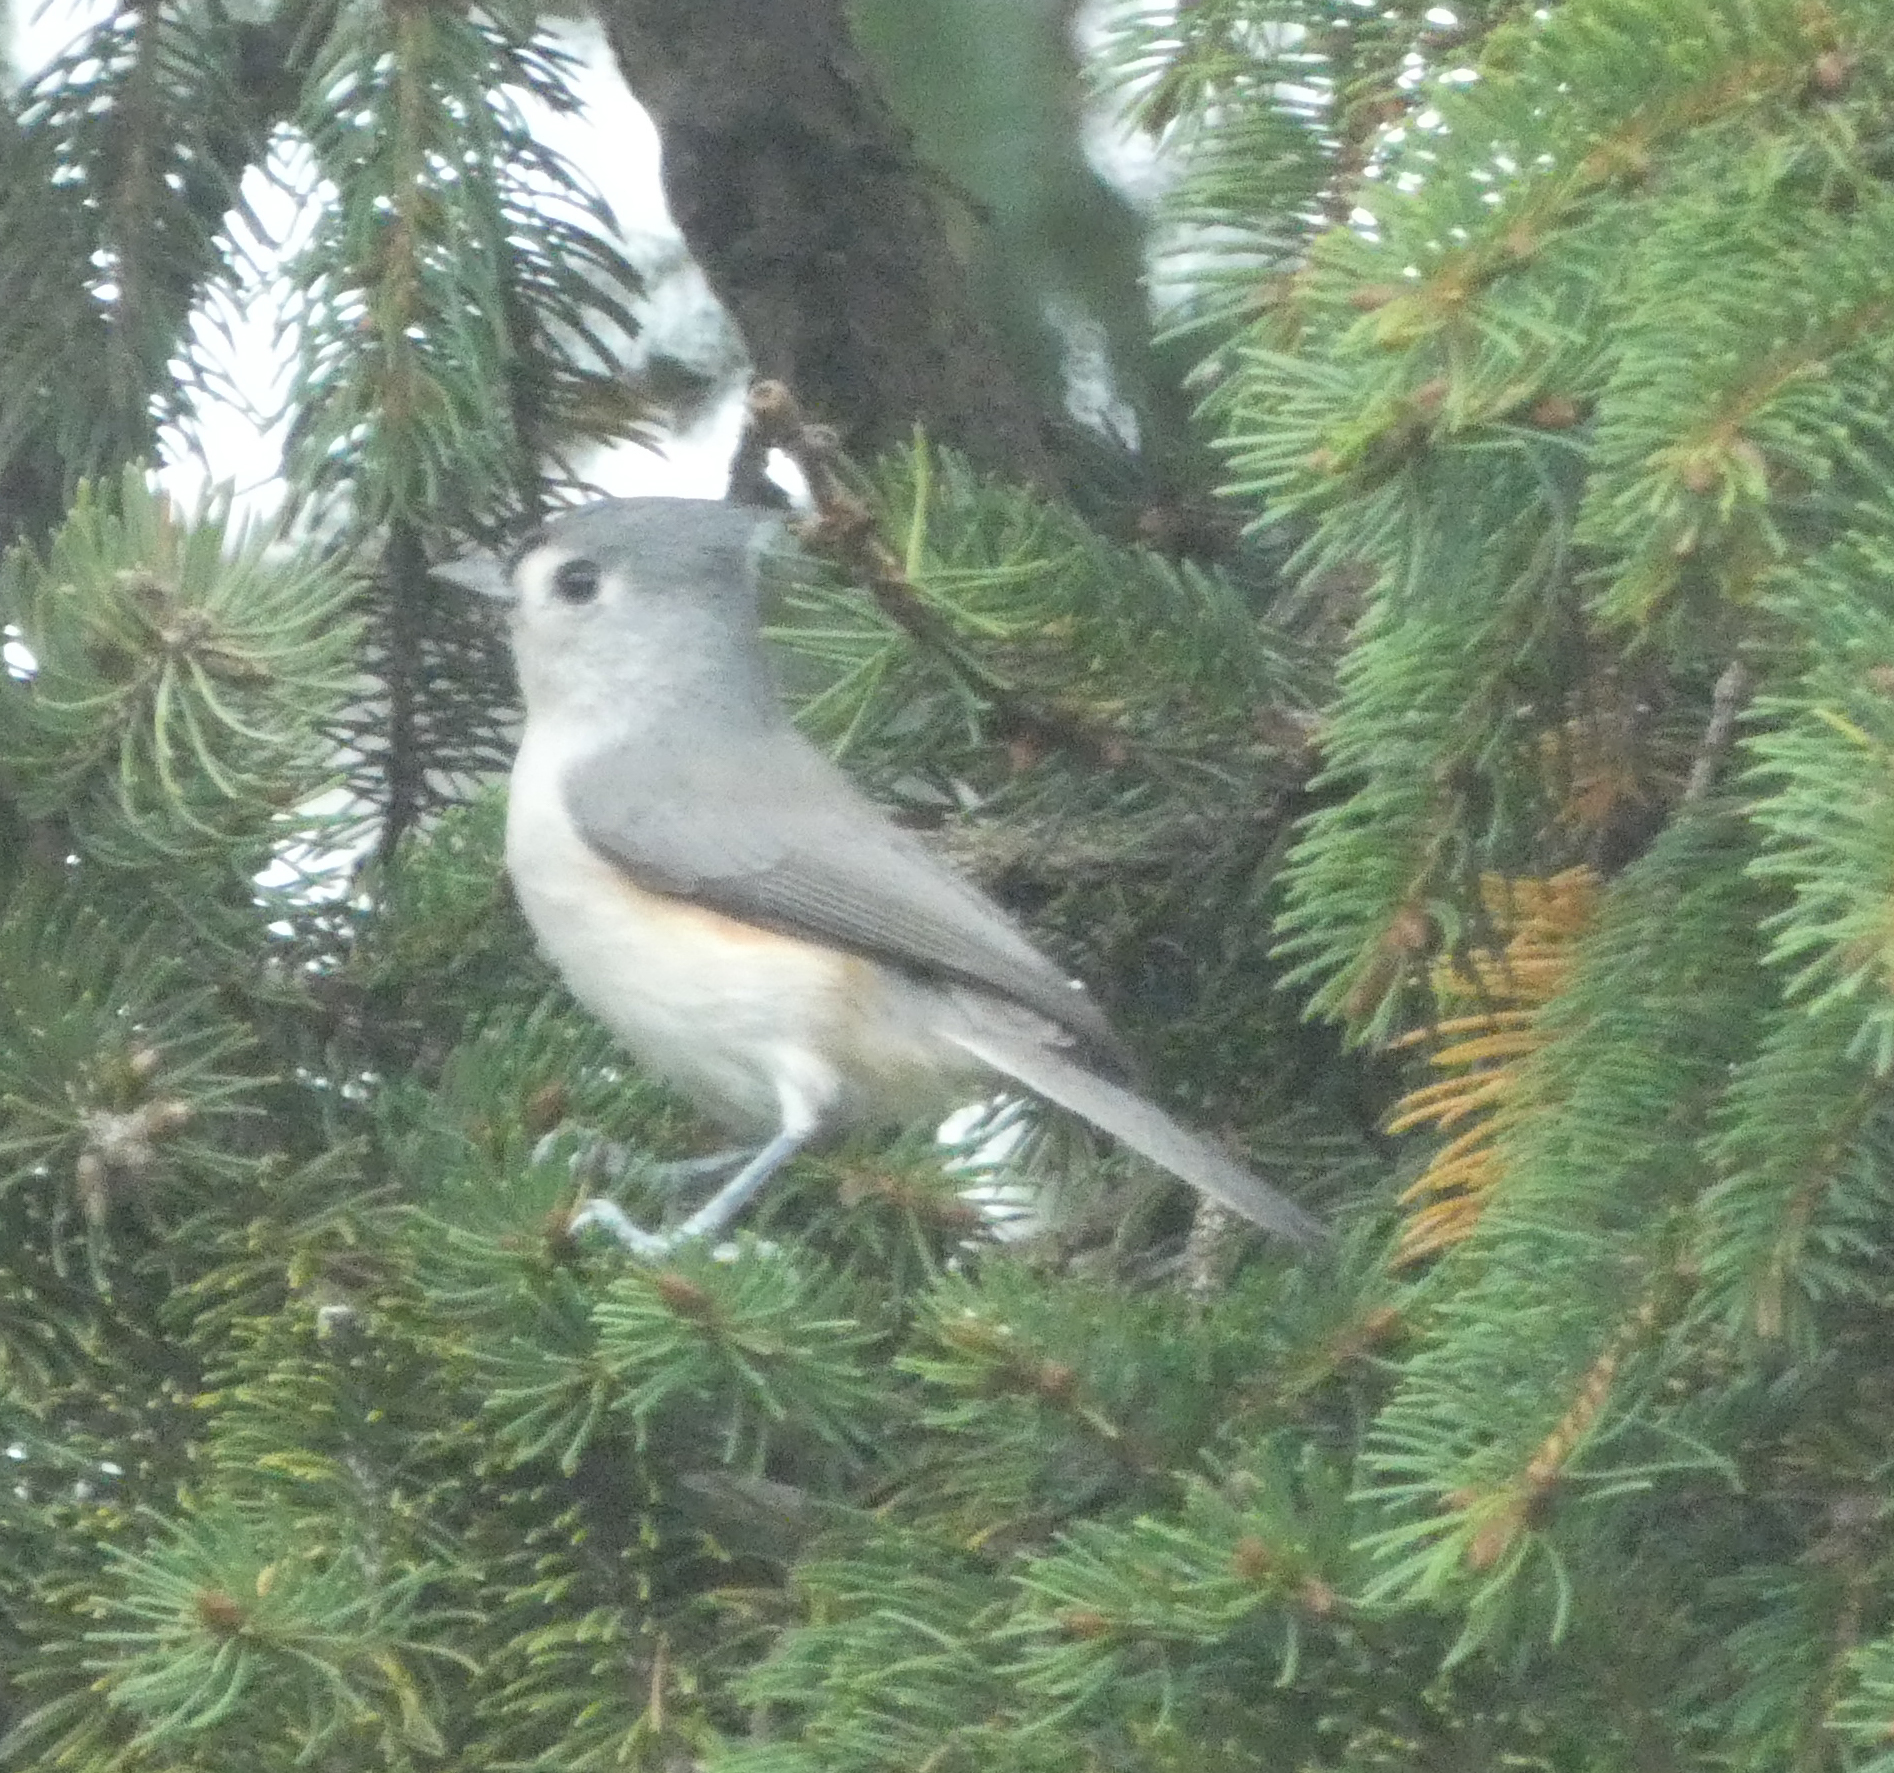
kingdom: Animalia
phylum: Chordata
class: Aves
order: Passeriformes
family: Paridae
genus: Baeolophus
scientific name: Baeolophus bicolor
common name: Tufted titmouse
